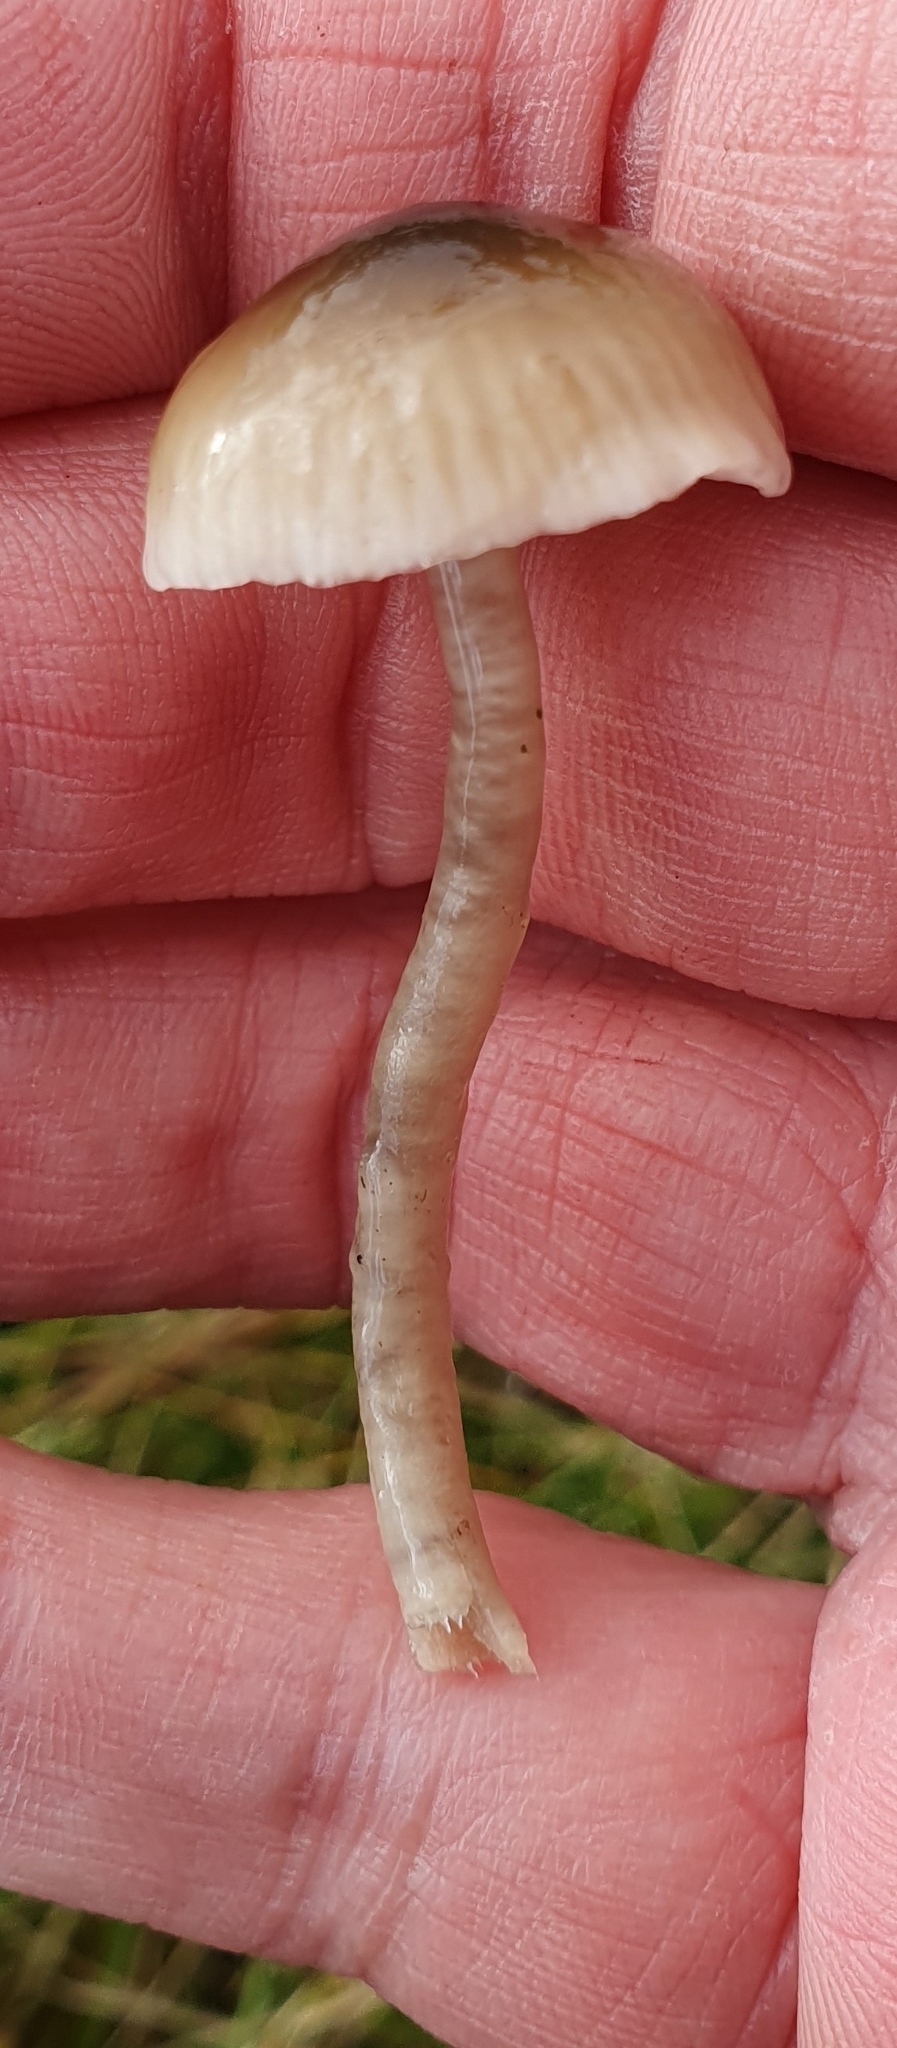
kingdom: Fungi
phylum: Basidiomycota
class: Agaricomycetes
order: Agaricales
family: Hygrophoraceae
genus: Gliophorus
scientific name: Gliophorus irrigatus
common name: Slimy waxcap
